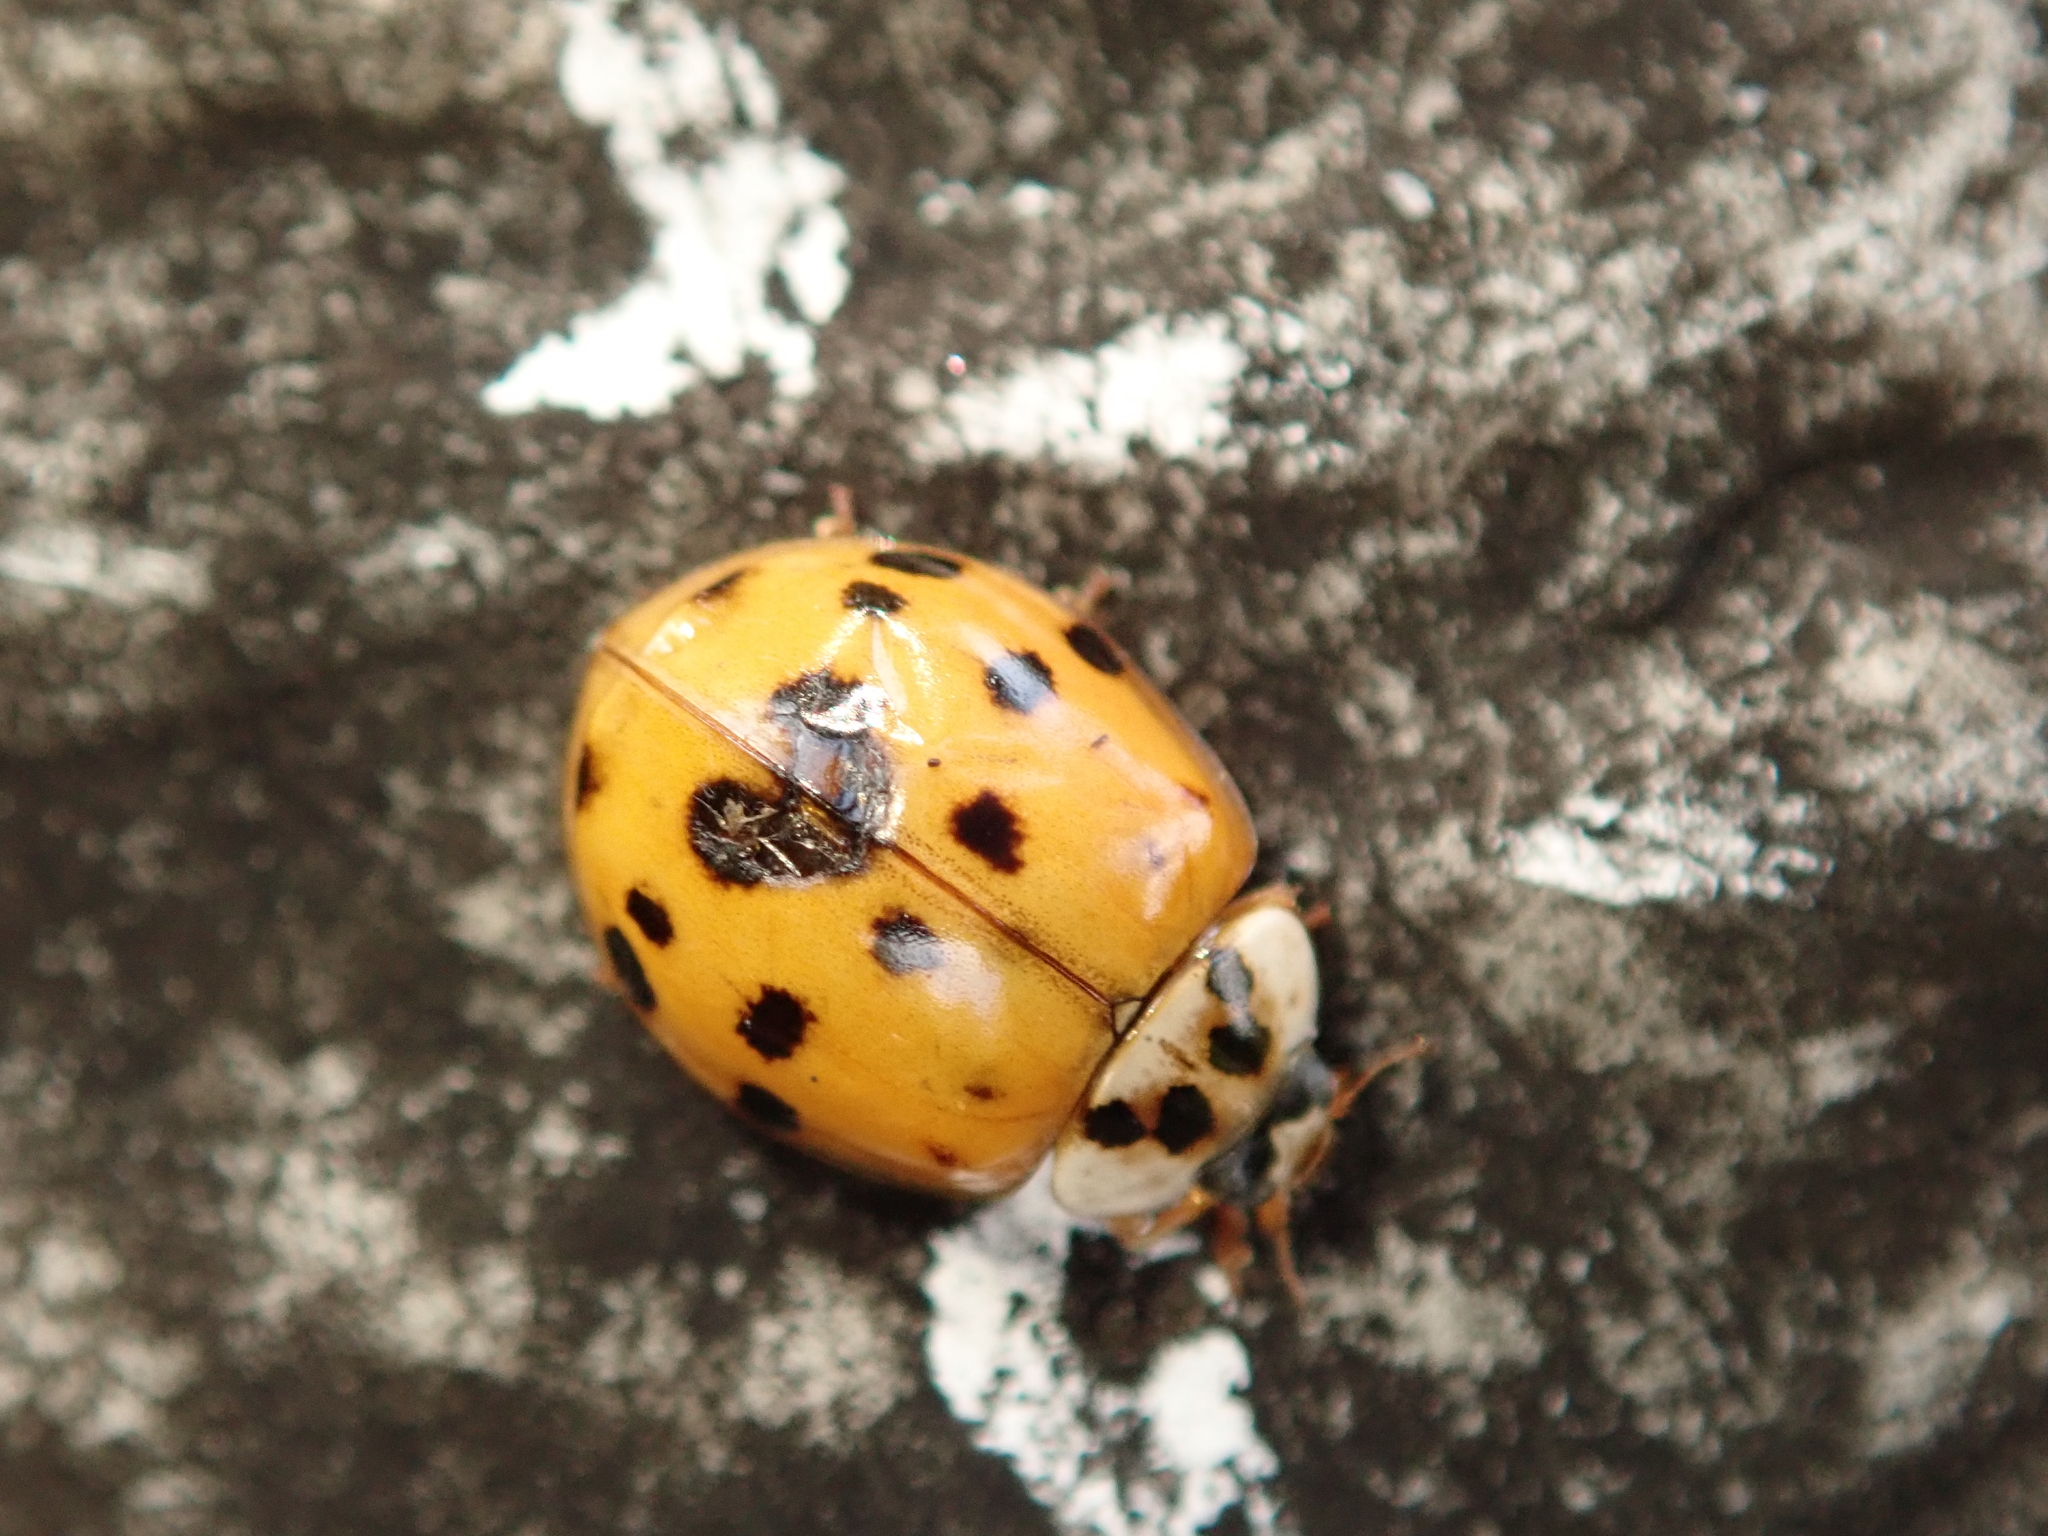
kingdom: Animalia
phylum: Arthropoda
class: Insecta
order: Coleoptera
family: Coccinellidae
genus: Harmonia
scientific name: Harmonia axyridis
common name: Harlequin ladybird
